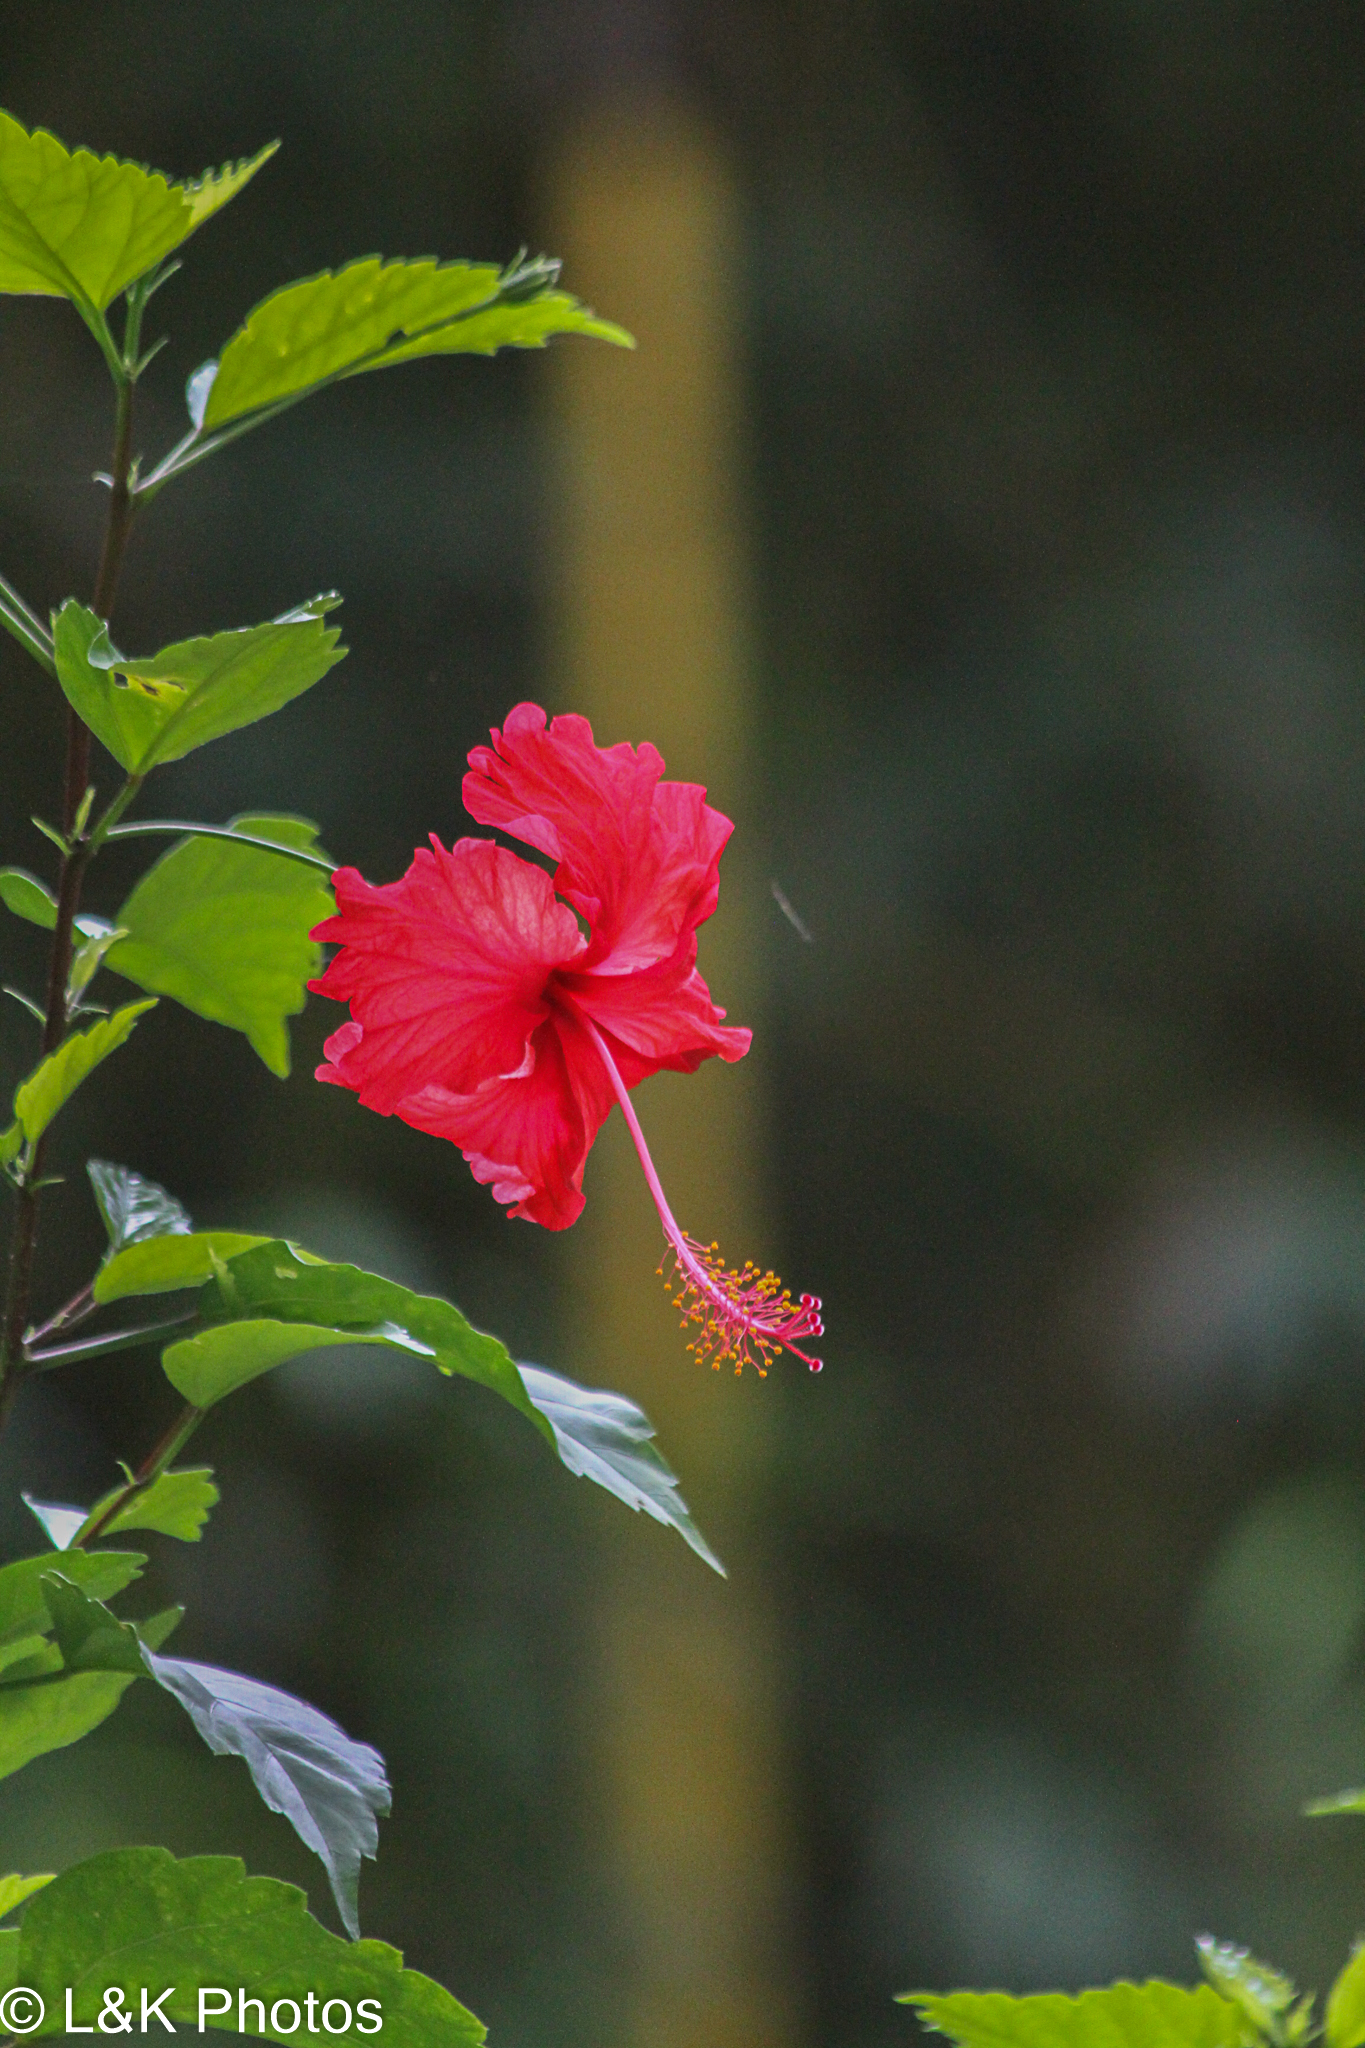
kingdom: Plantae
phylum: Tracheophyta
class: Magnoliopsida
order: Malvales
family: Malvaceae
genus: Hibiscus
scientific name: Hibiscus archeri
